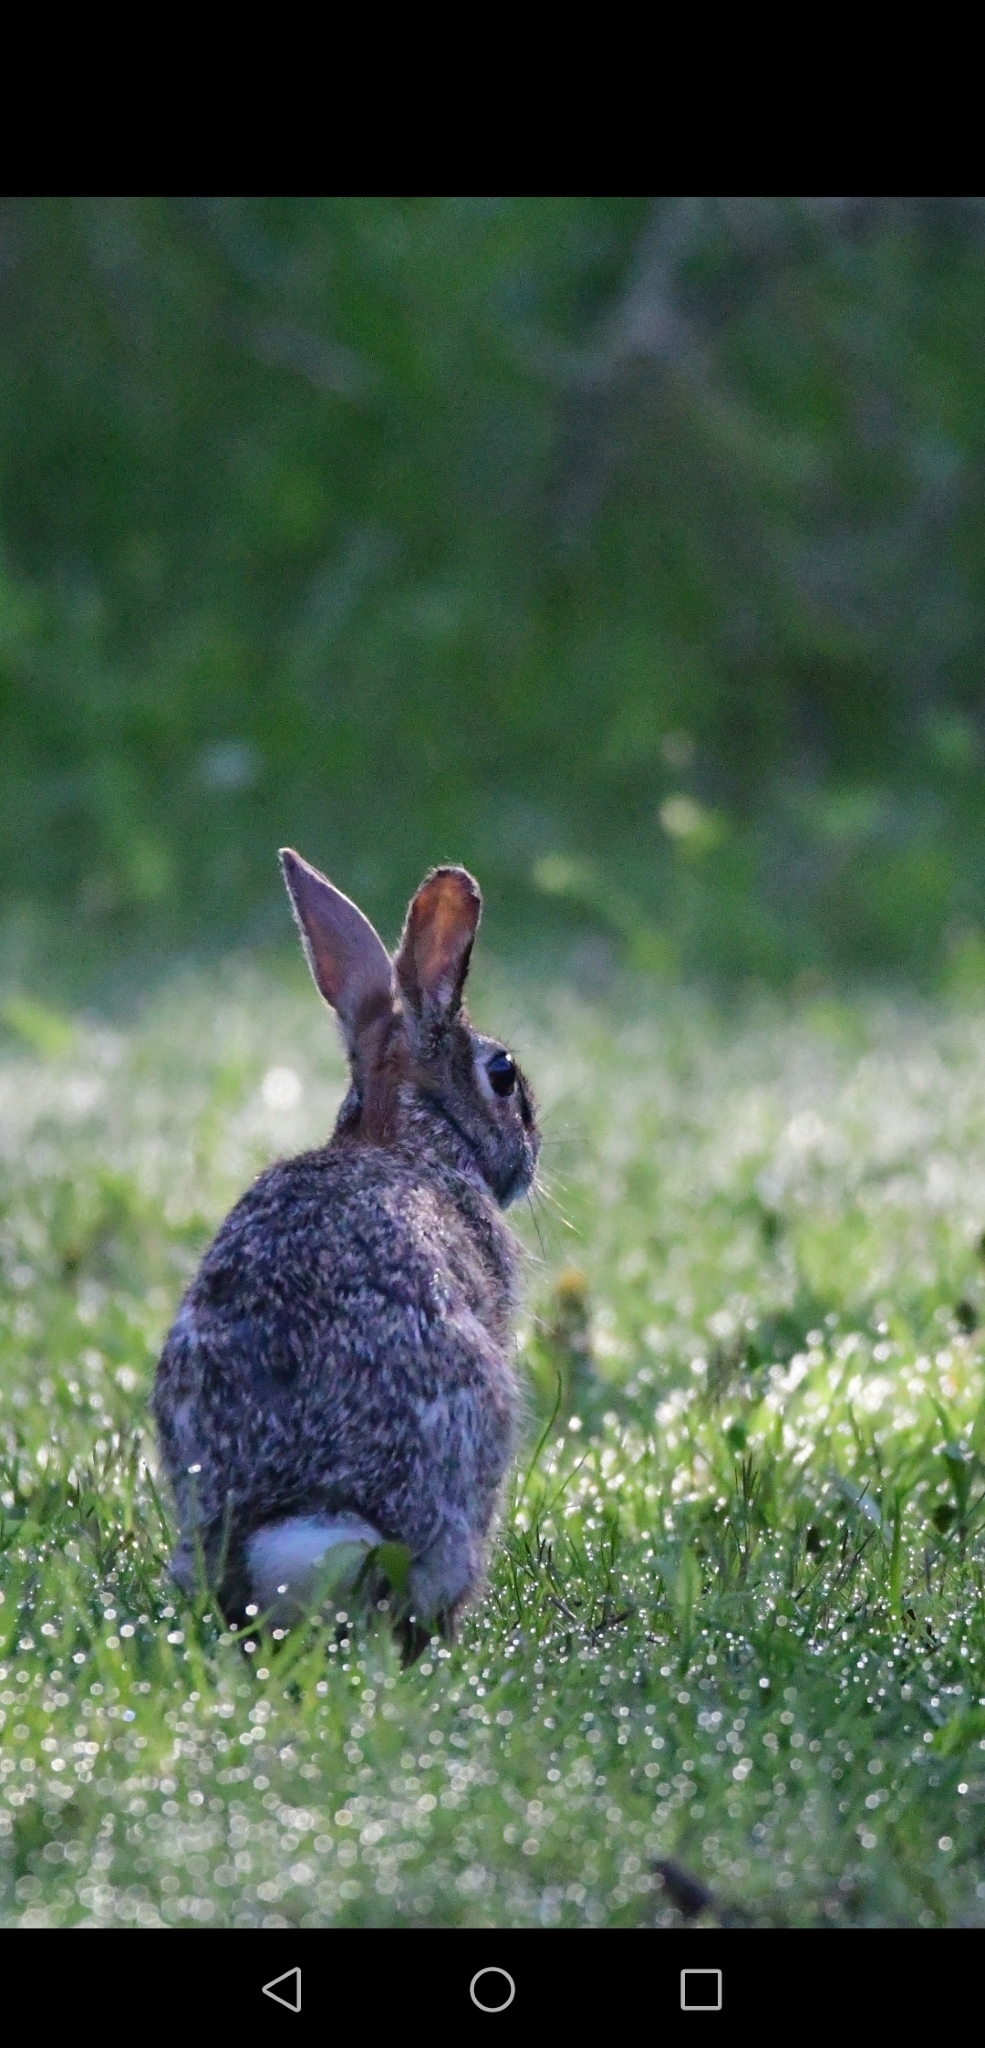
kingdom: Animalia
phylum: Chordata
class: Mammalia
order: Lagomorpha
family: Leporidae
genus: Sylvilagus
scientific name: Sylvilagus floridanus
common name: Eastern cottontail
